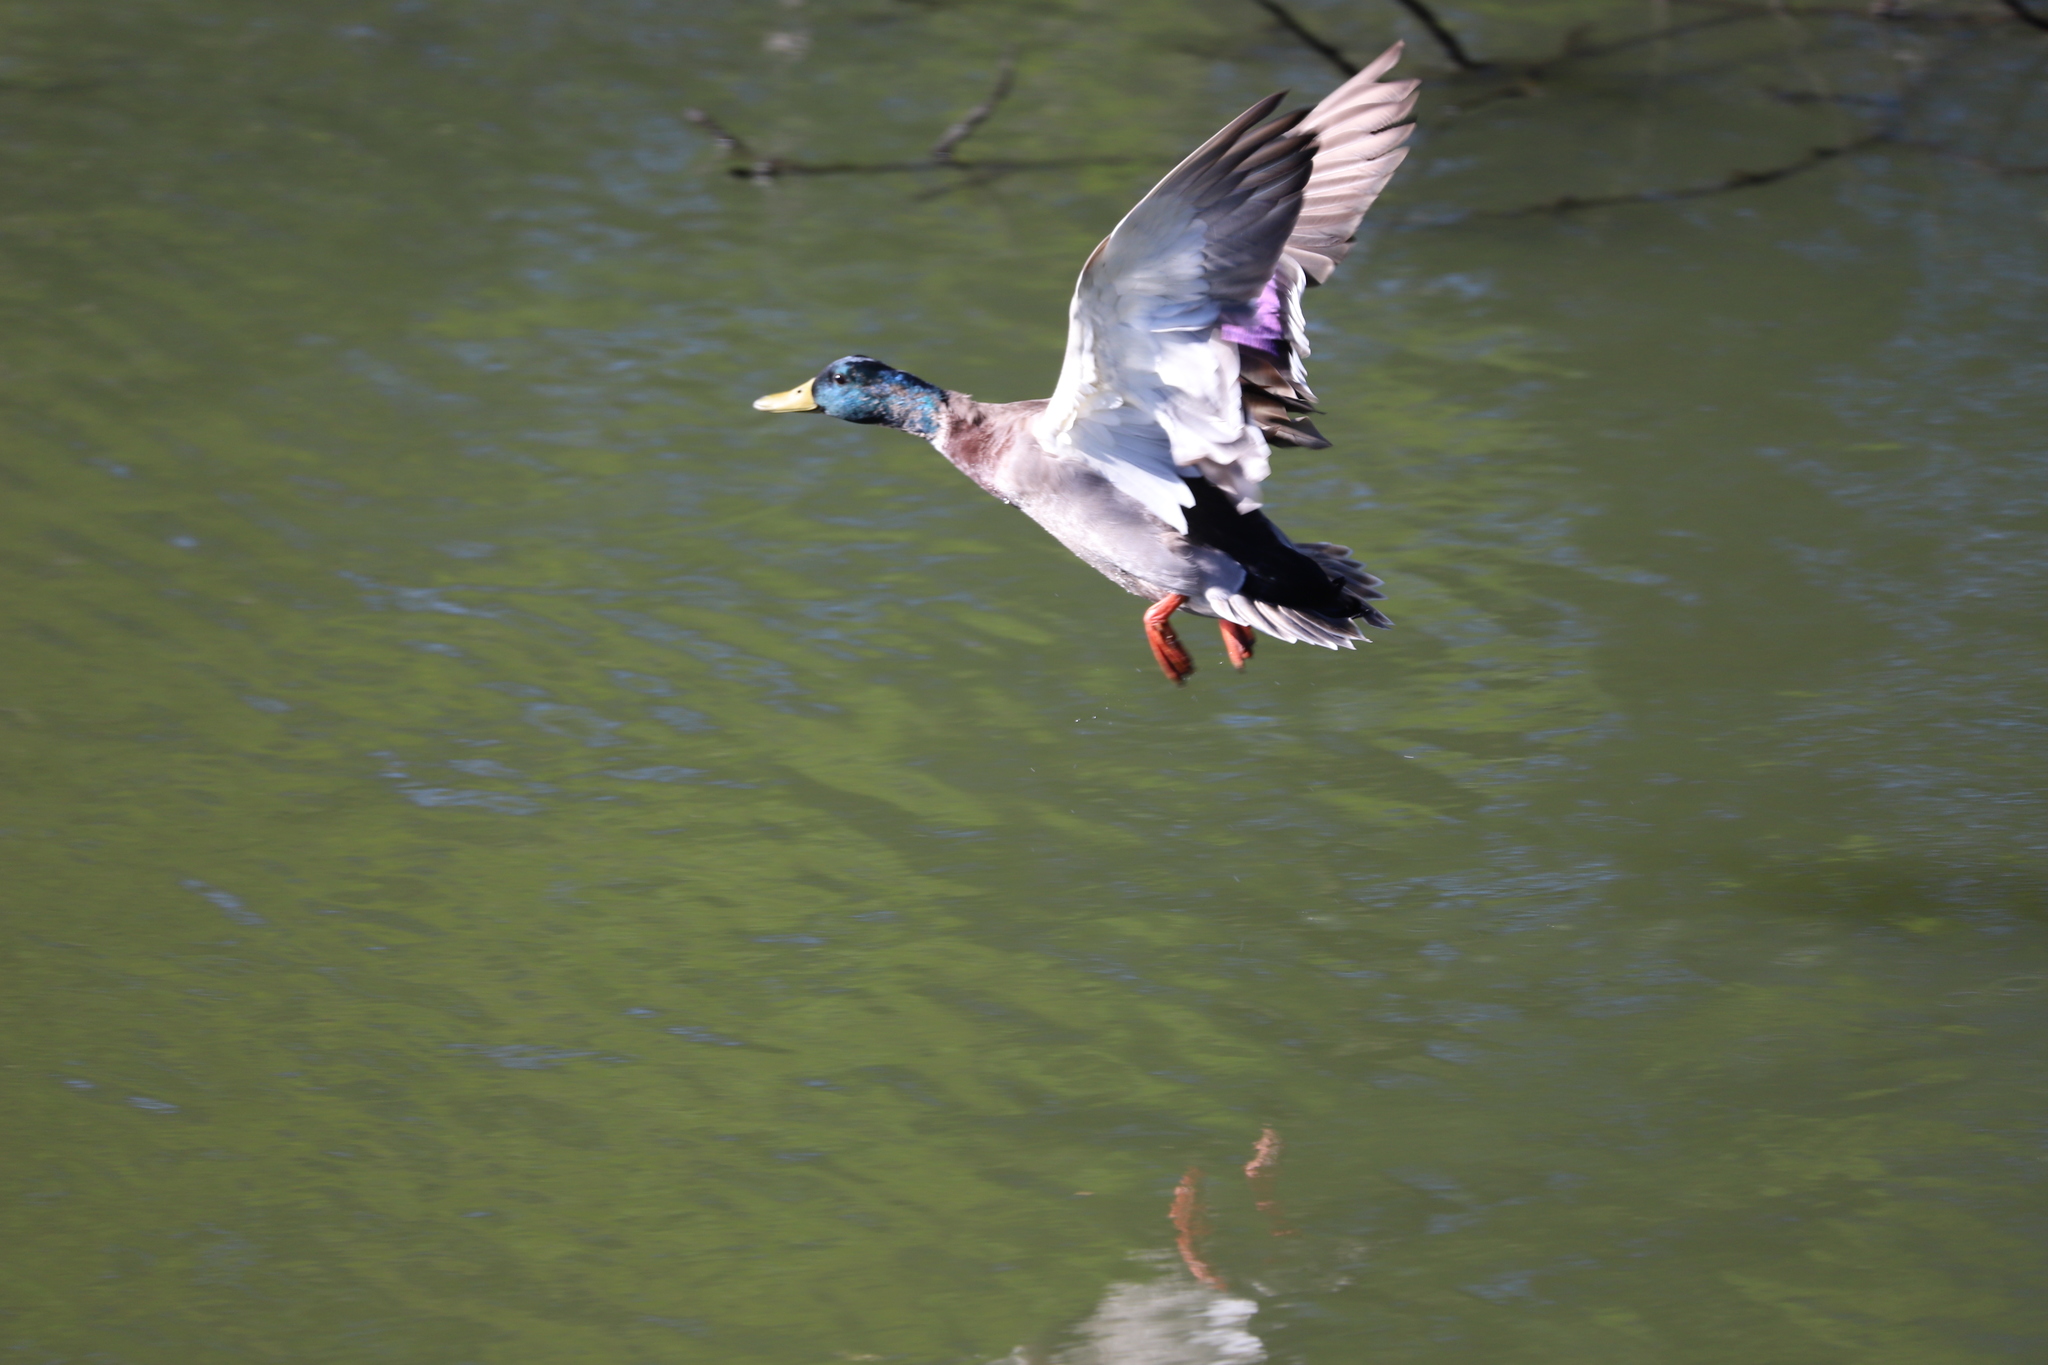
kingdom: Animalia
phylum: Chordata
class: Aves
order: Anseriformes
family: Anatidae
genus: Anas
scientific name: Anas platyrhynchos
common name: Mallard
